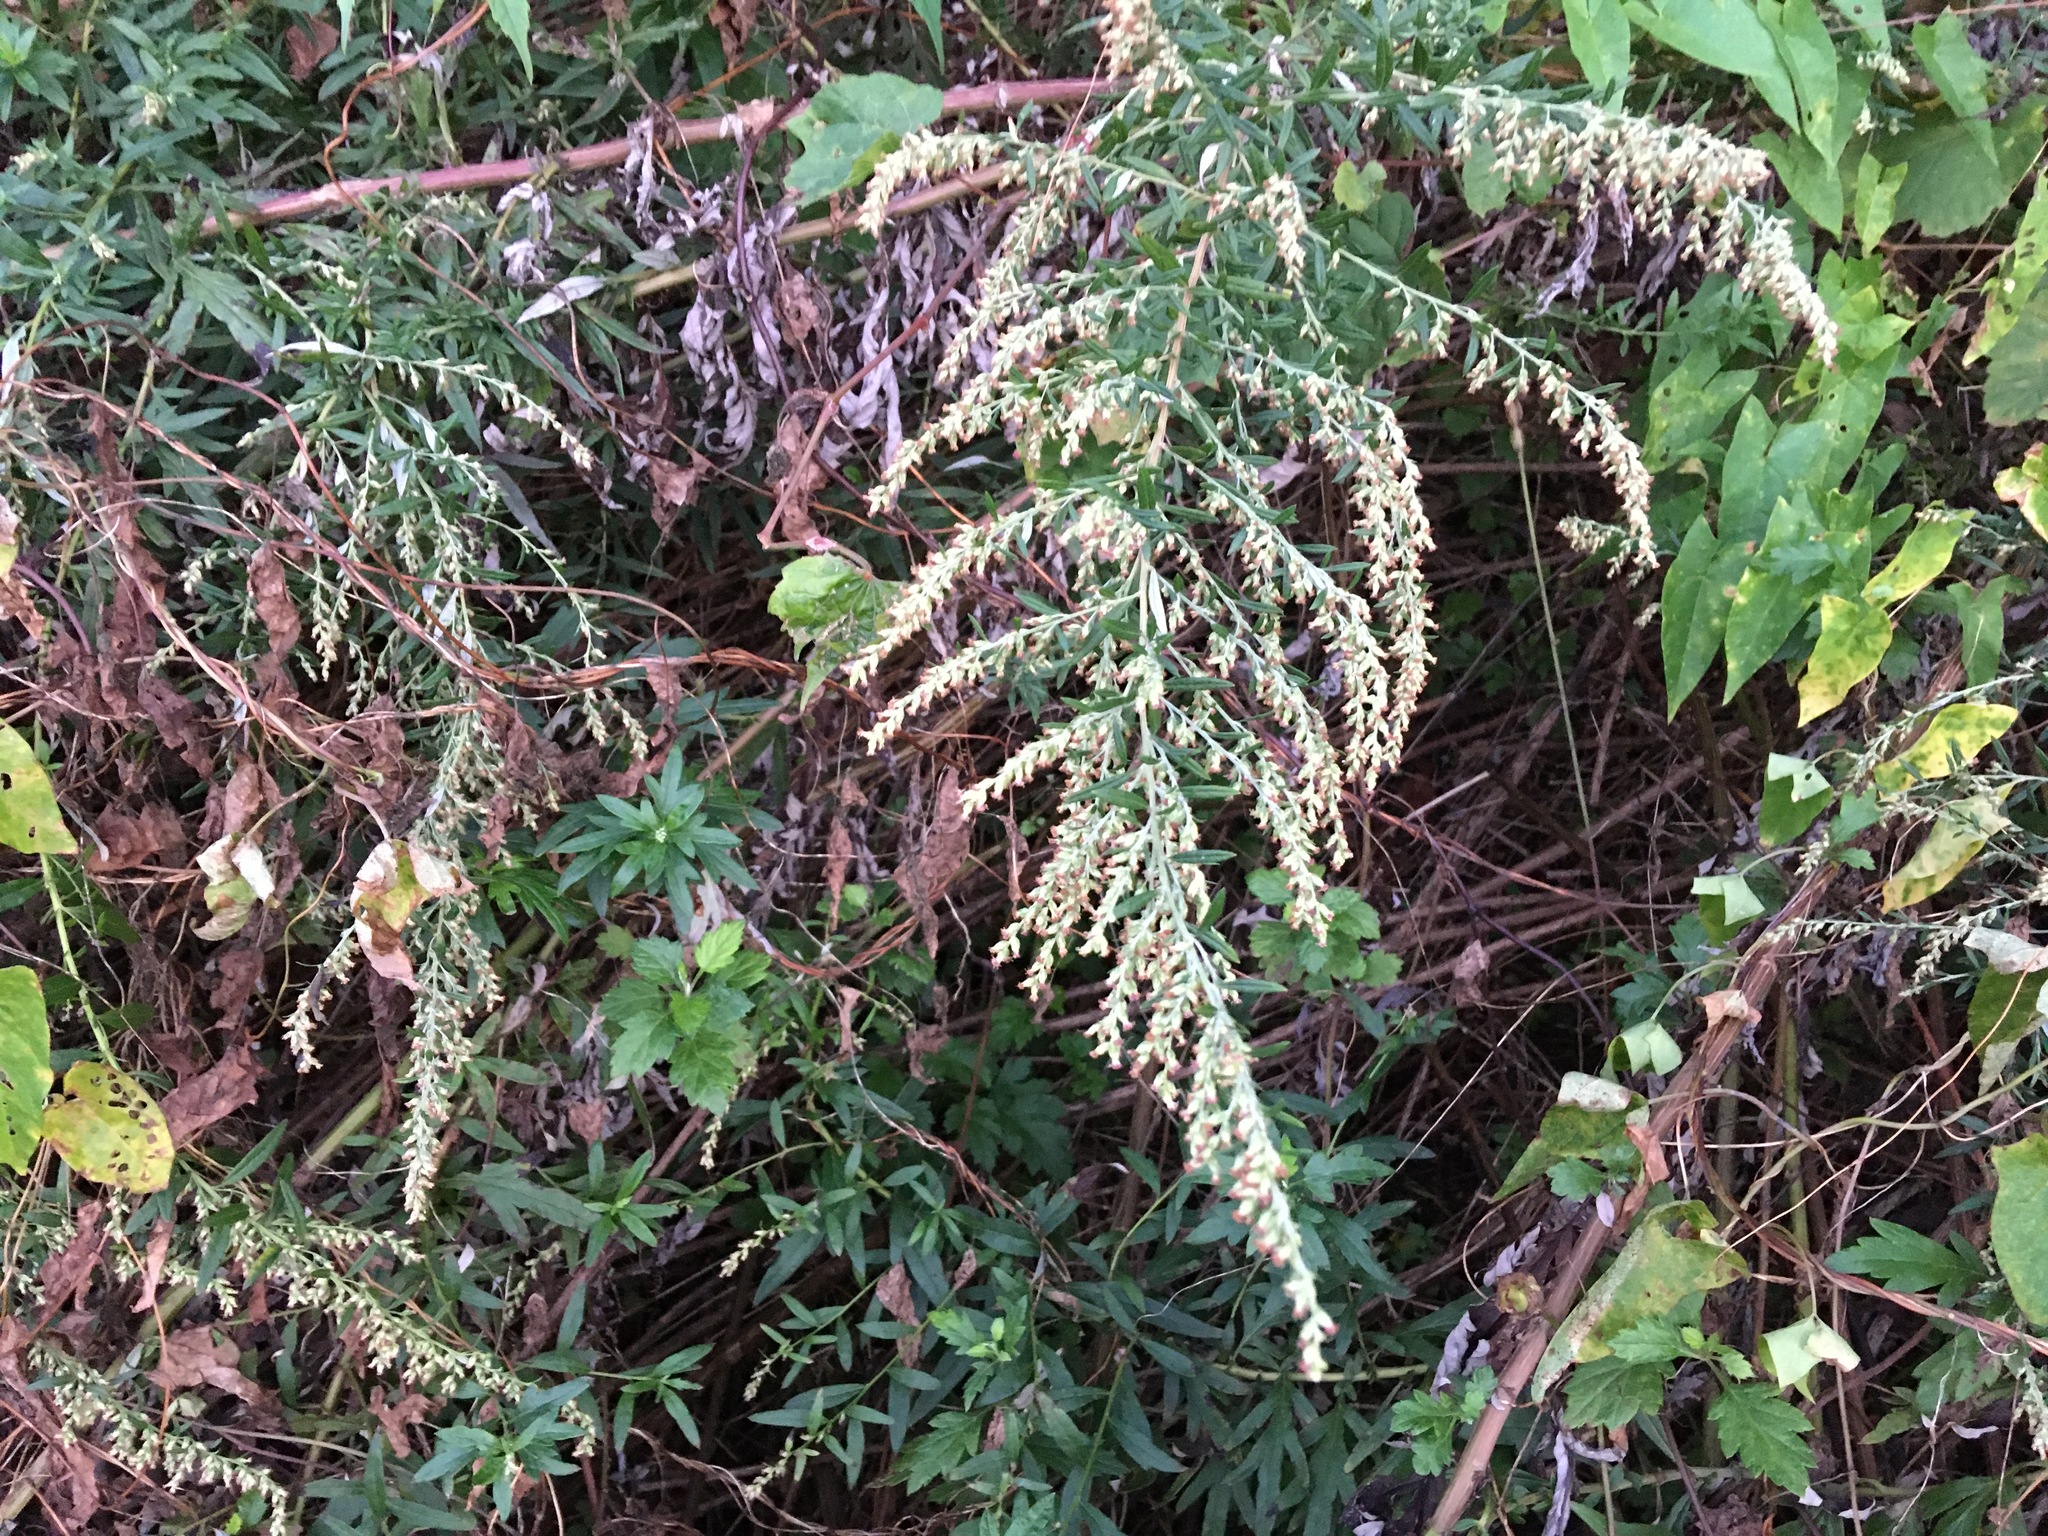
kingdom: Plantae
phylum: Tracheophyta
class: Magnoliopsida
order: Asterales
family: Asteraceae
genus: Artemisia
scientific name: Artemisia vulgaris
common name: Mugwort
